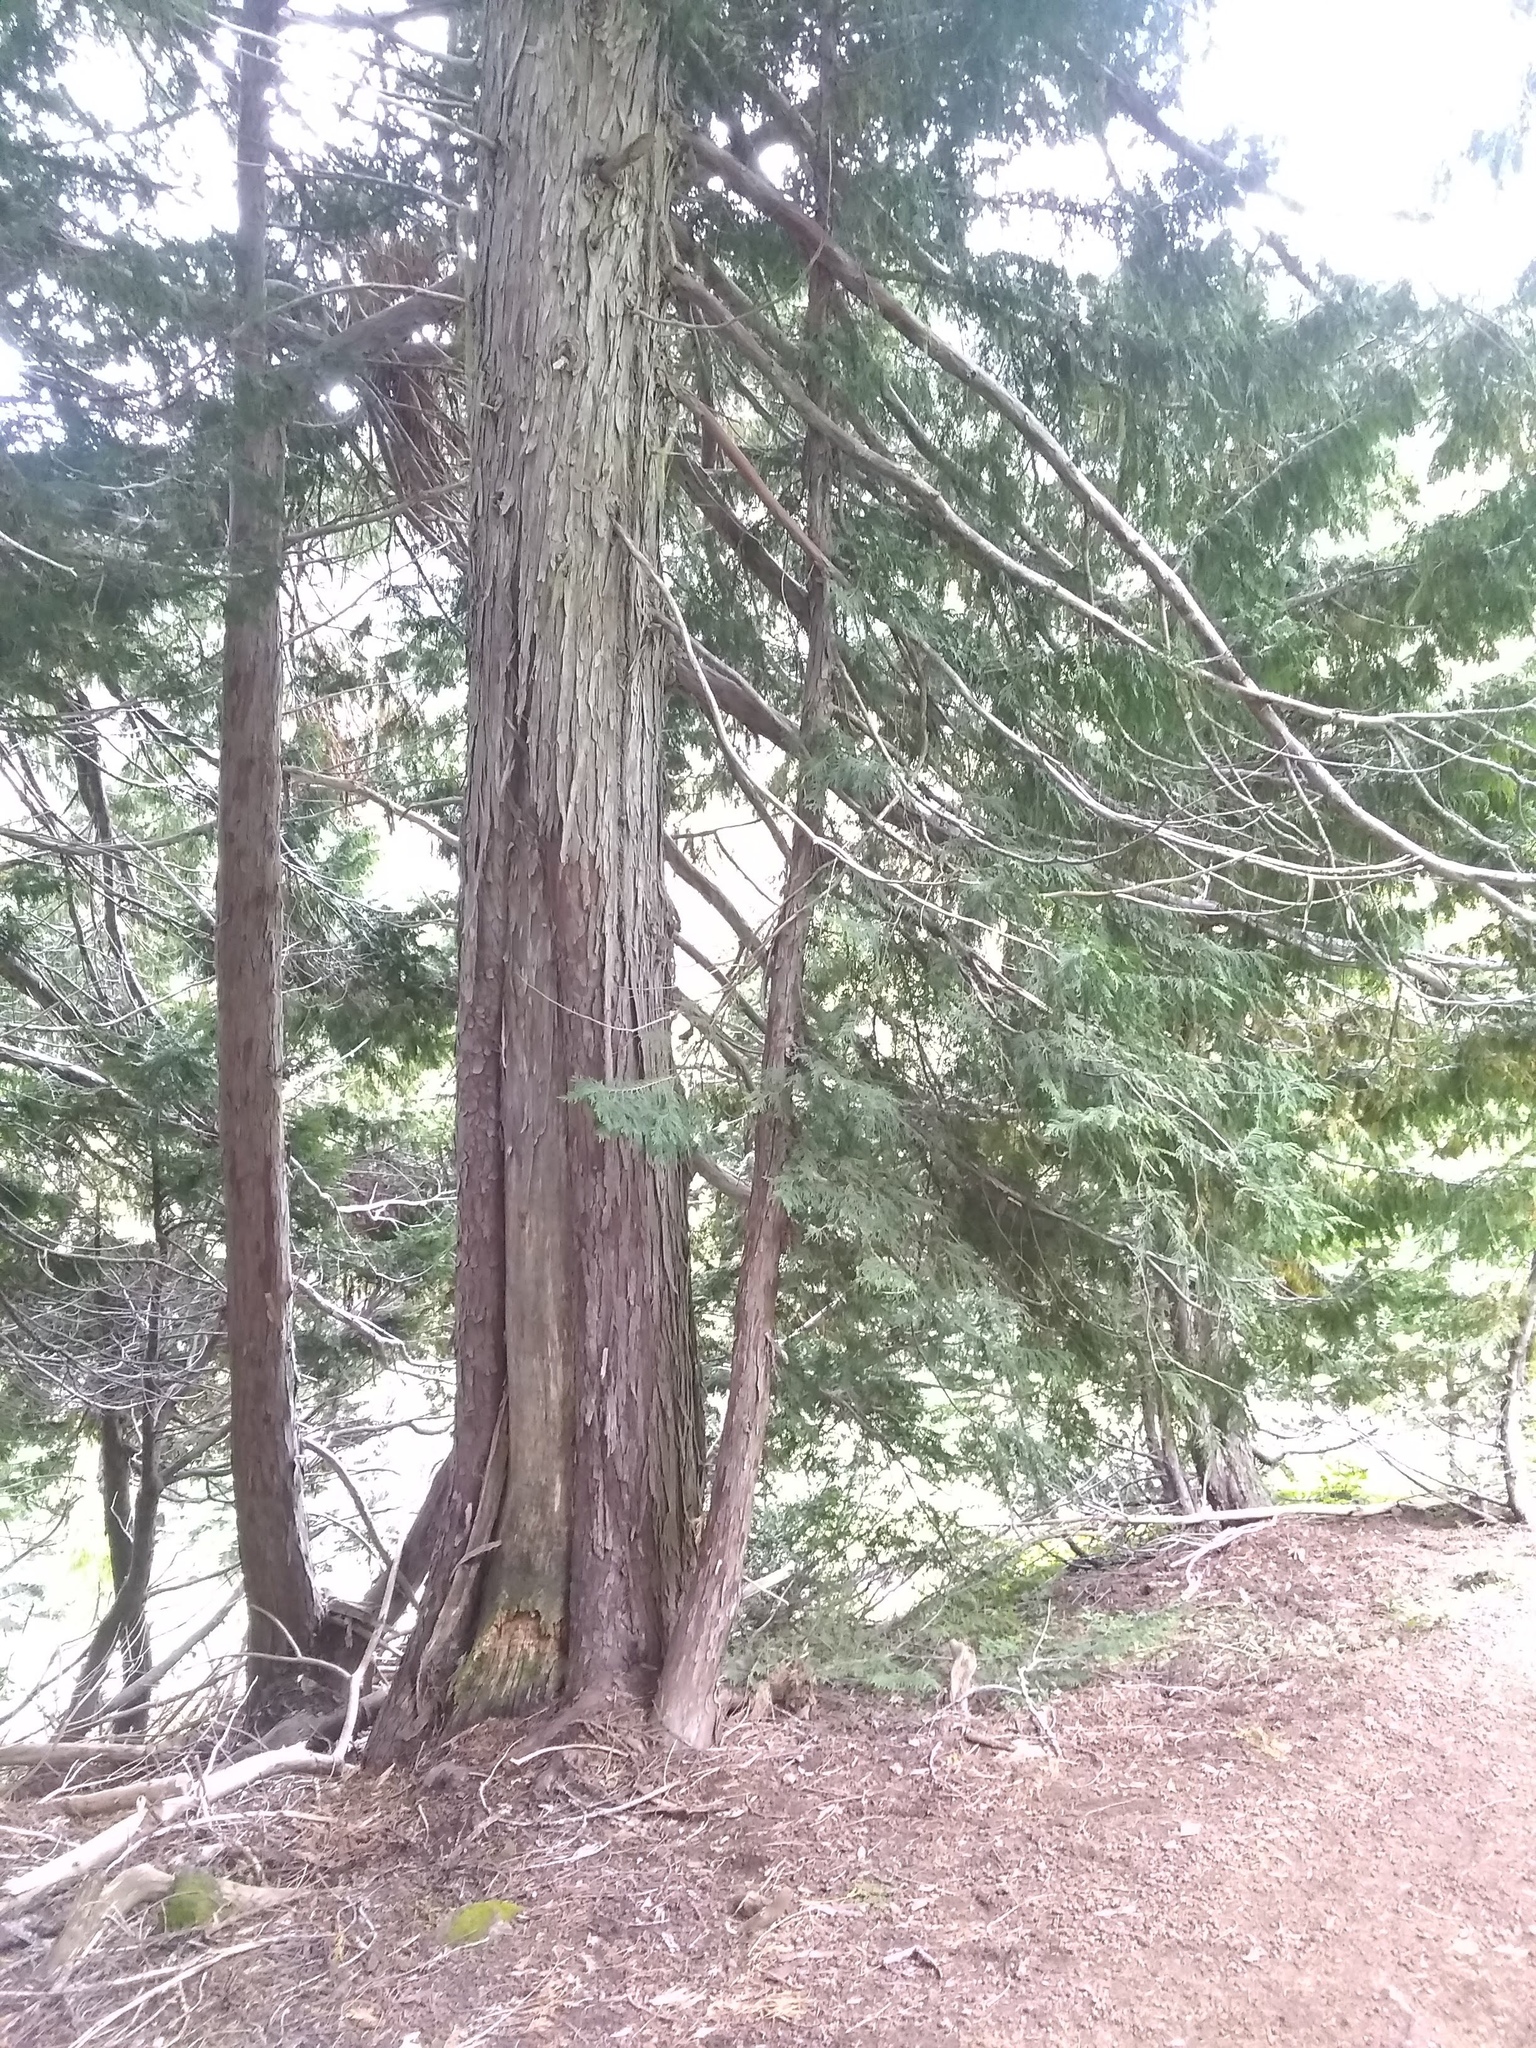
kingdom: Plantae
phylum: Tracheophyta
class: Pinopsida
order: Pinales
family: Cupressaceae
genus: Xanthocyparis
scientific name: Xanthocyparis nootkatensis
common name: Nootka cypress
